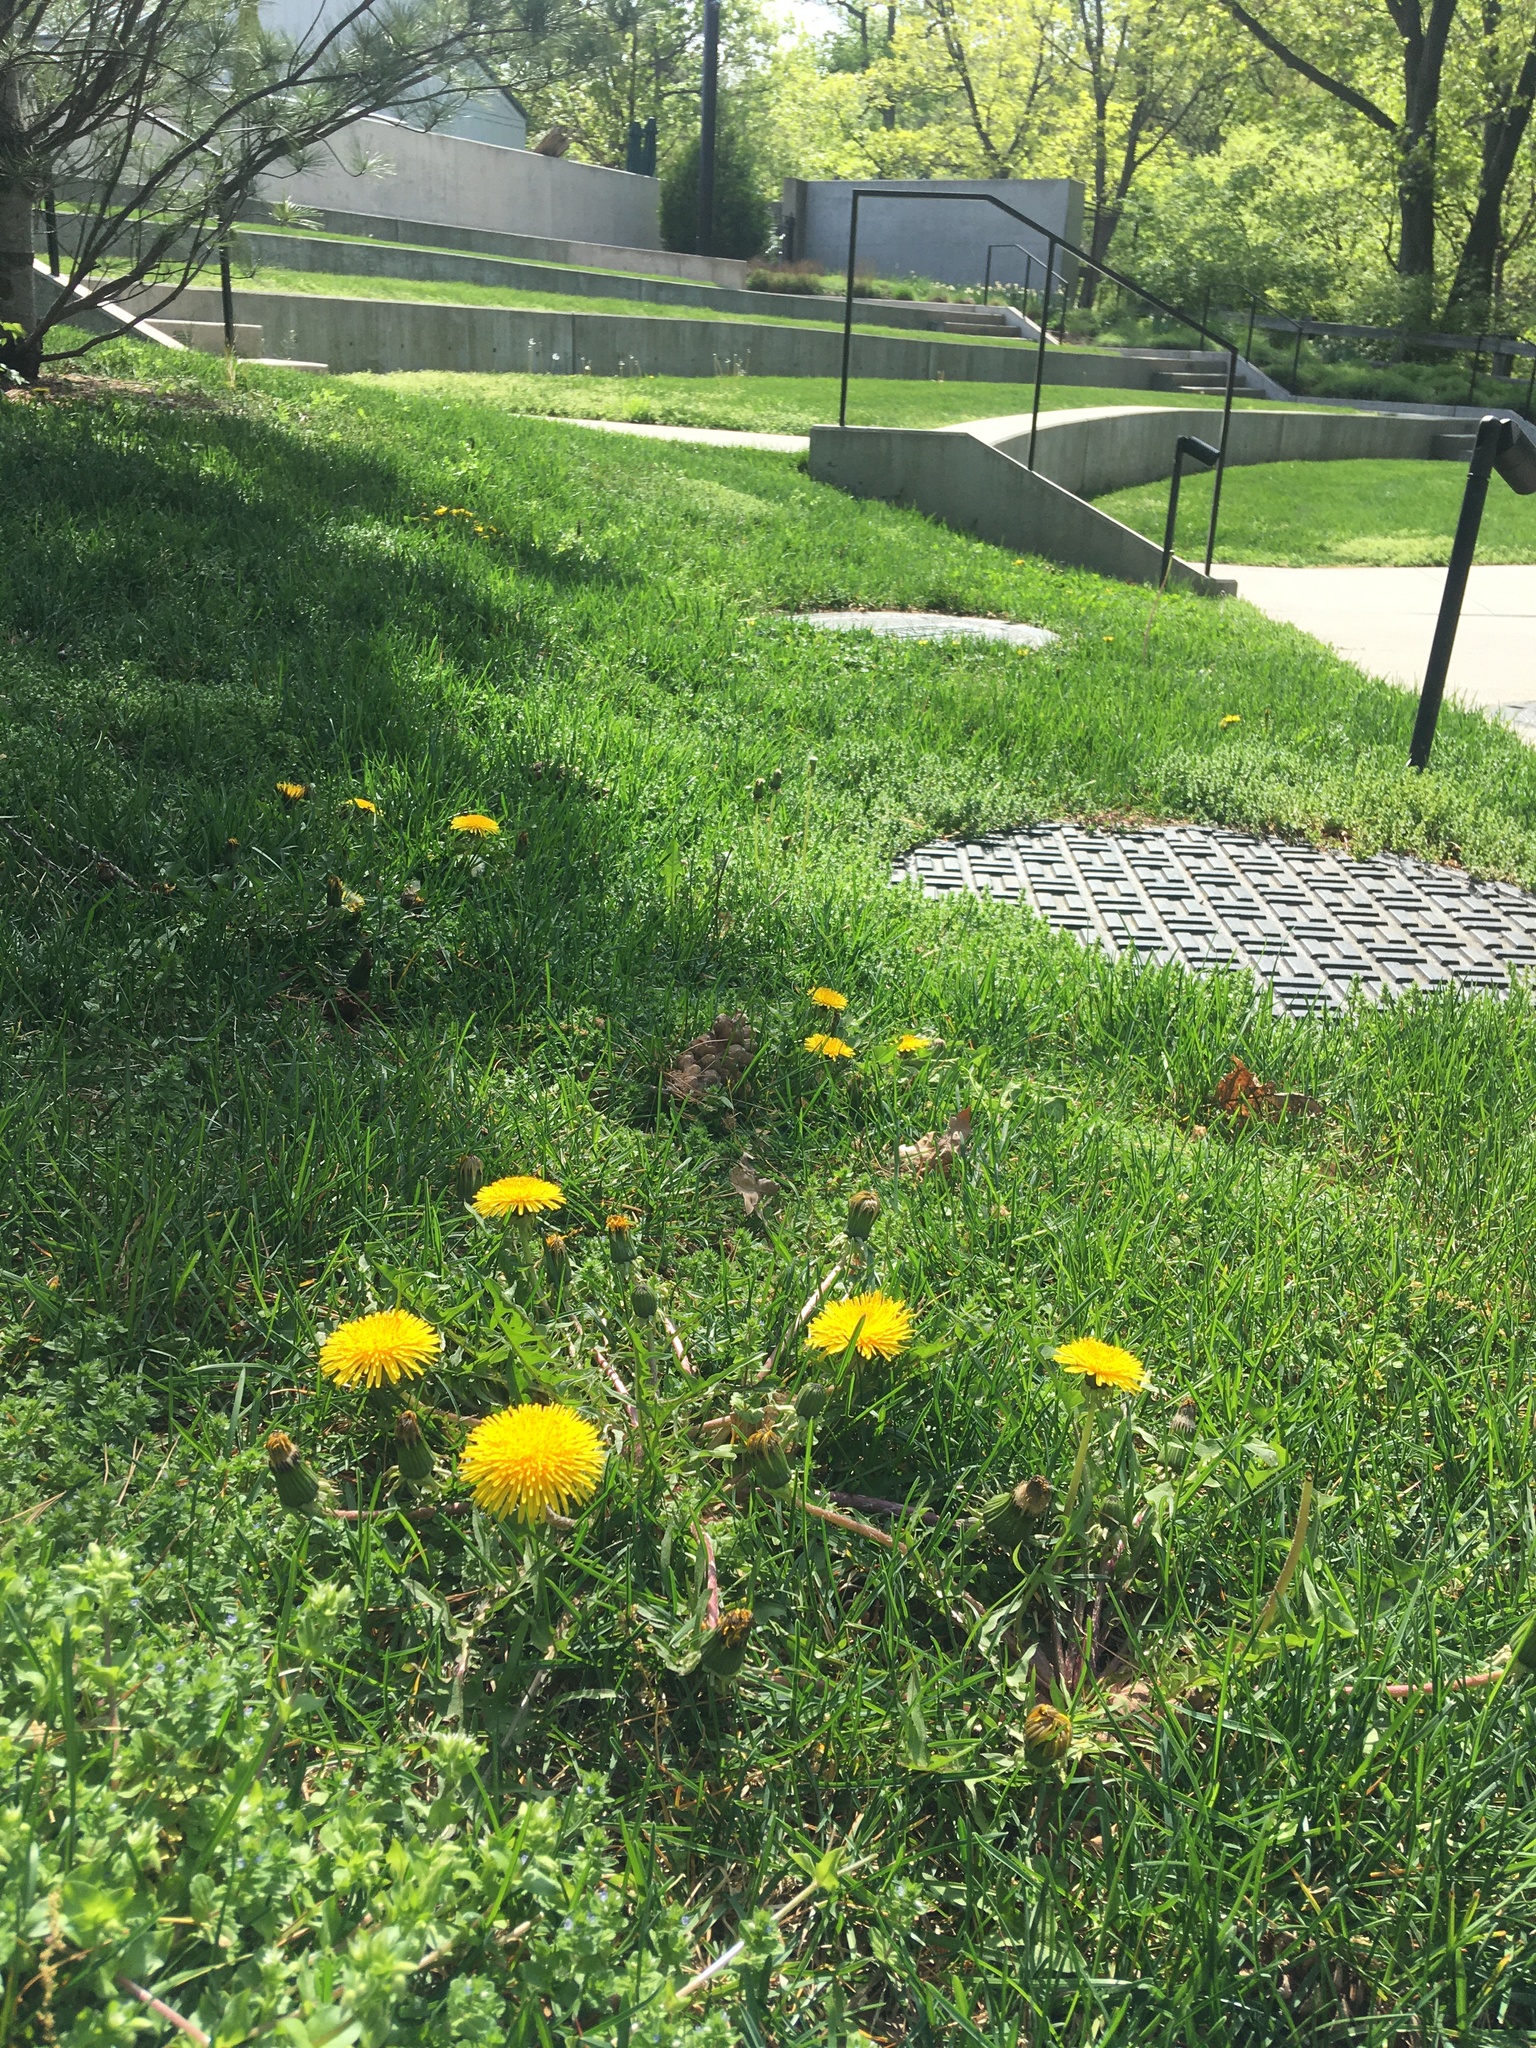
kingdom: Plantae
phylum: Tracheophyta
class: Magnoliopsida
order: Asterales
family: Asteraceae
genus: Taraxacum
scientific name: Taraxacum officinale
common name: Common dandelion
